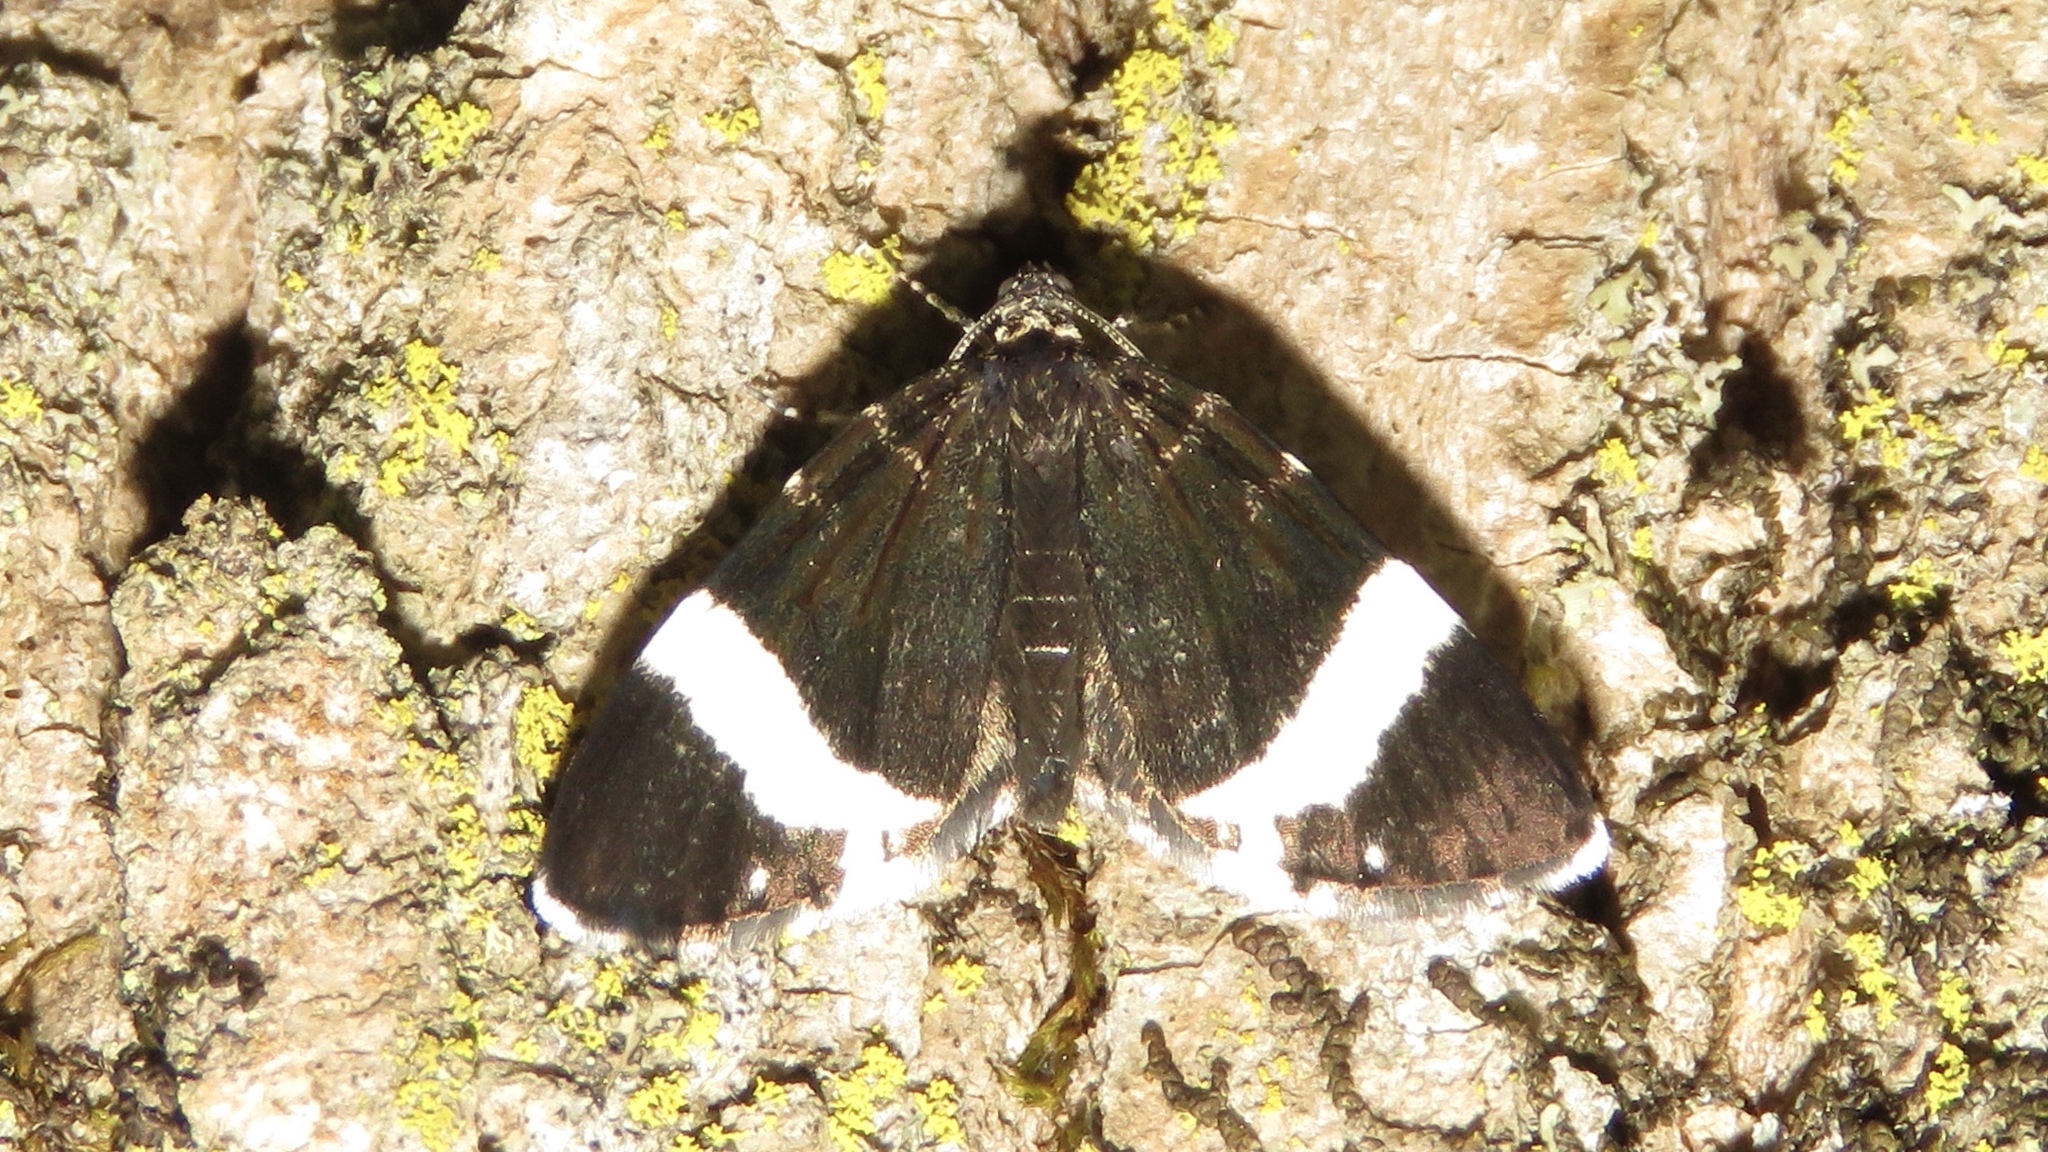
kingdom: Animalia
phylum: Arthropoda
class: Insecta
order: Lepidoptera
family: Geometridae
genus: Trichodezia
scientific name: Trichodezia albovittata
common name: White striped black
